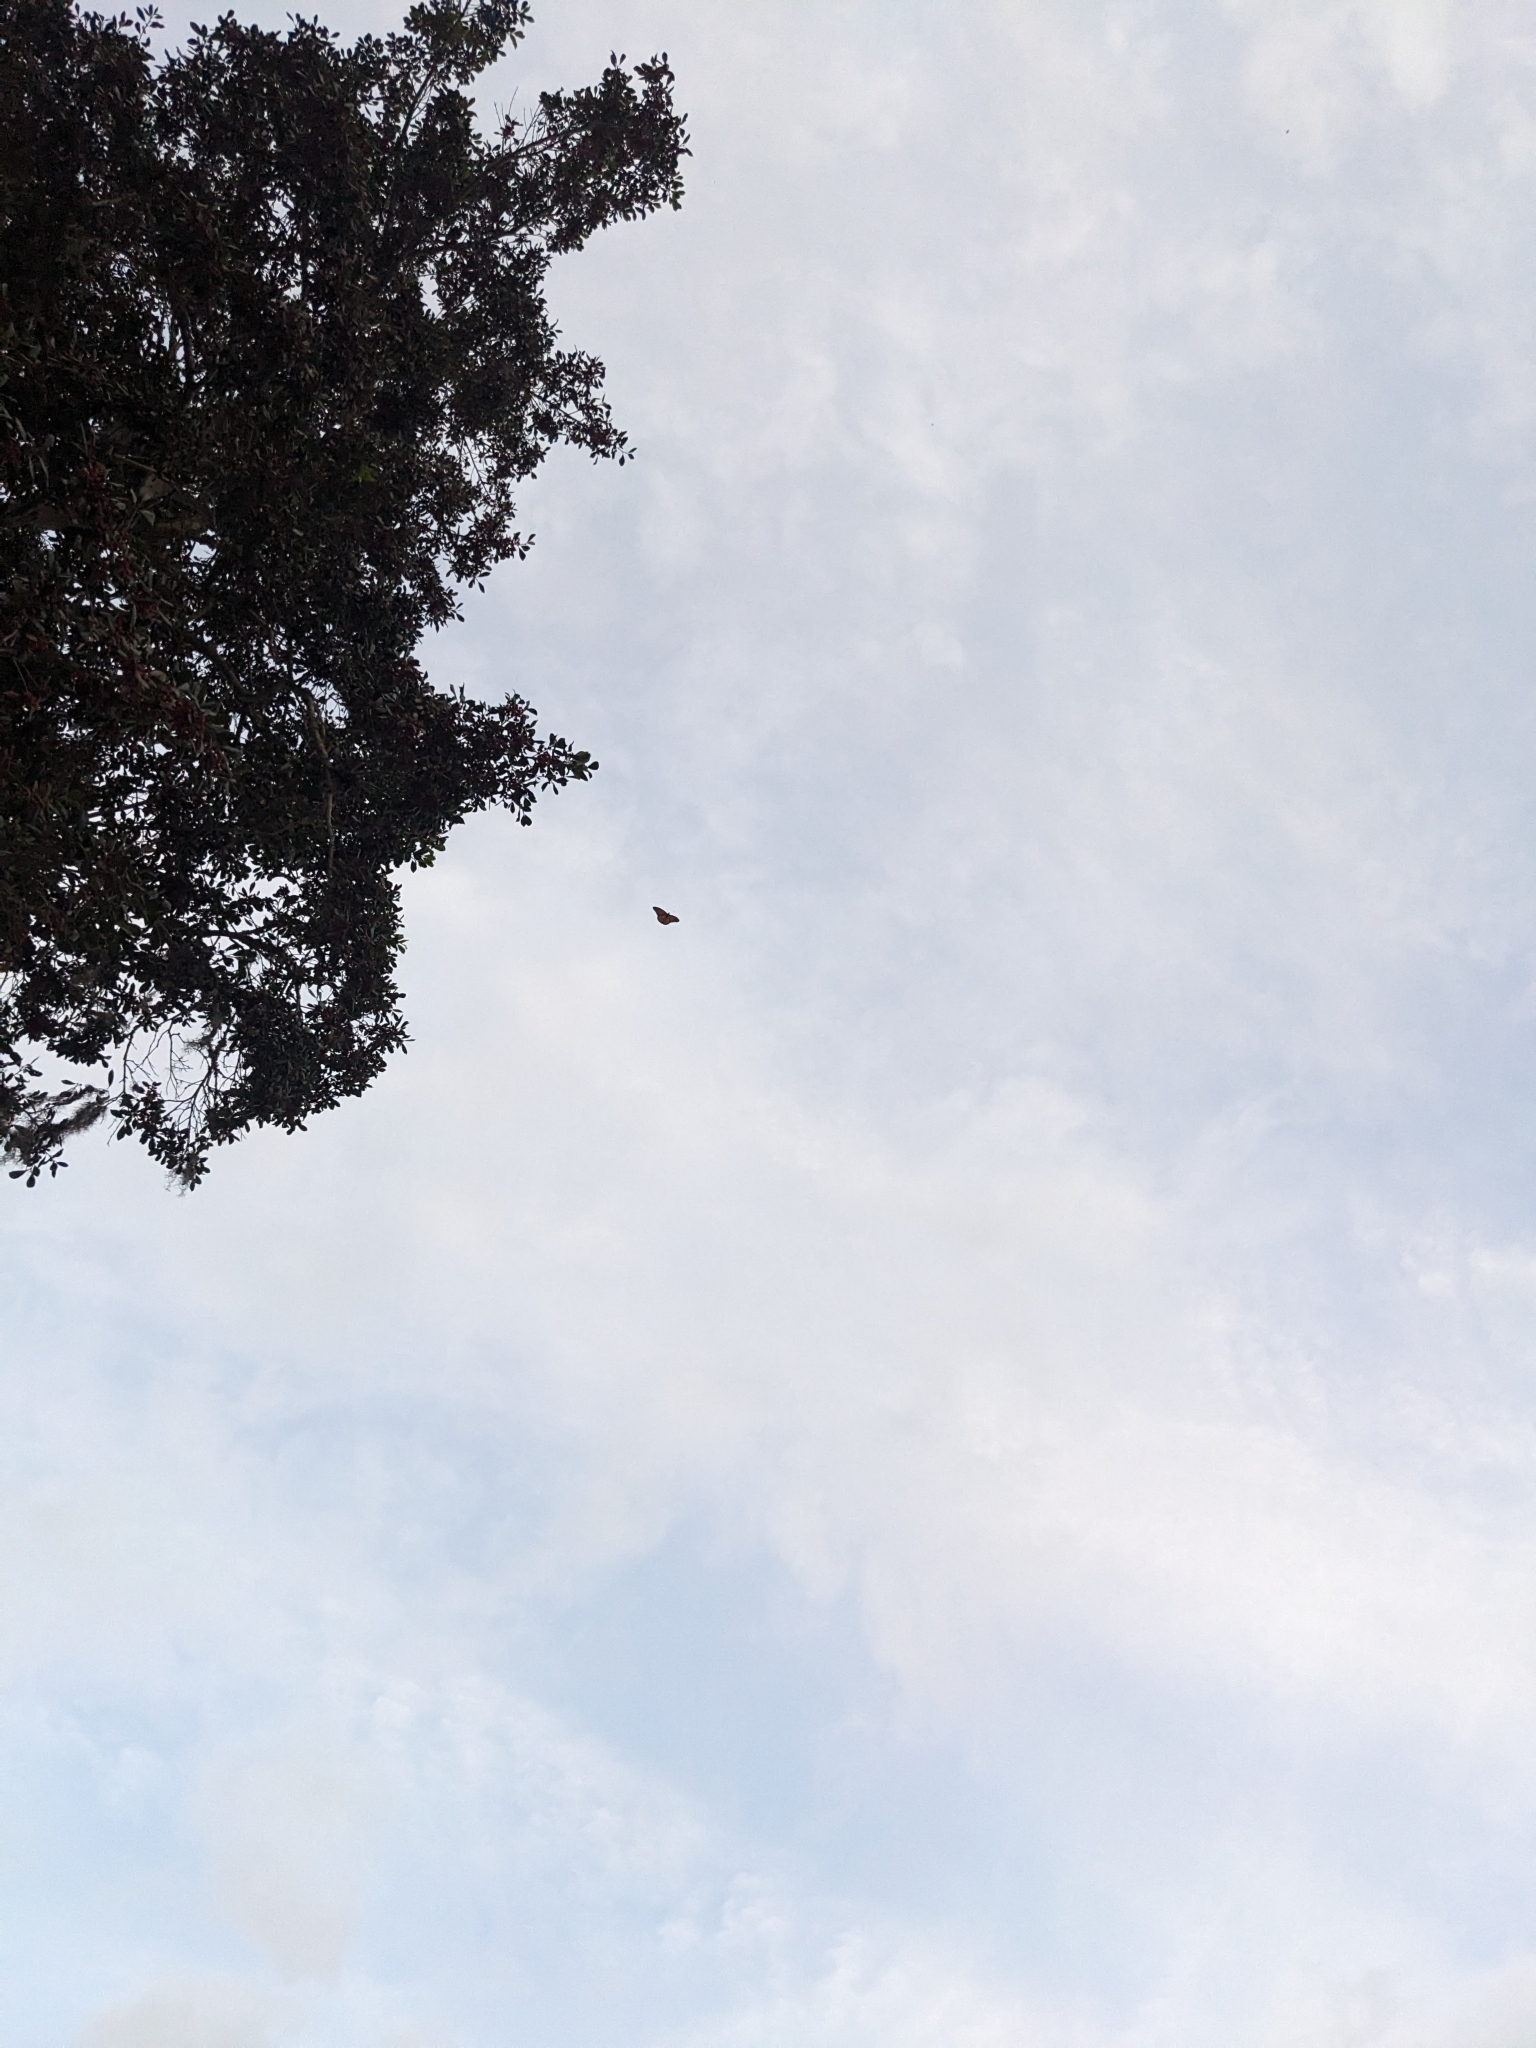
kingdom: Animalia
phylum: Arthropoda
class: Insecta
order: Lepidoptera
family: Nymphalidae
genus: Danaus
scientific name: Danaus plexippus
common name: Monarch
